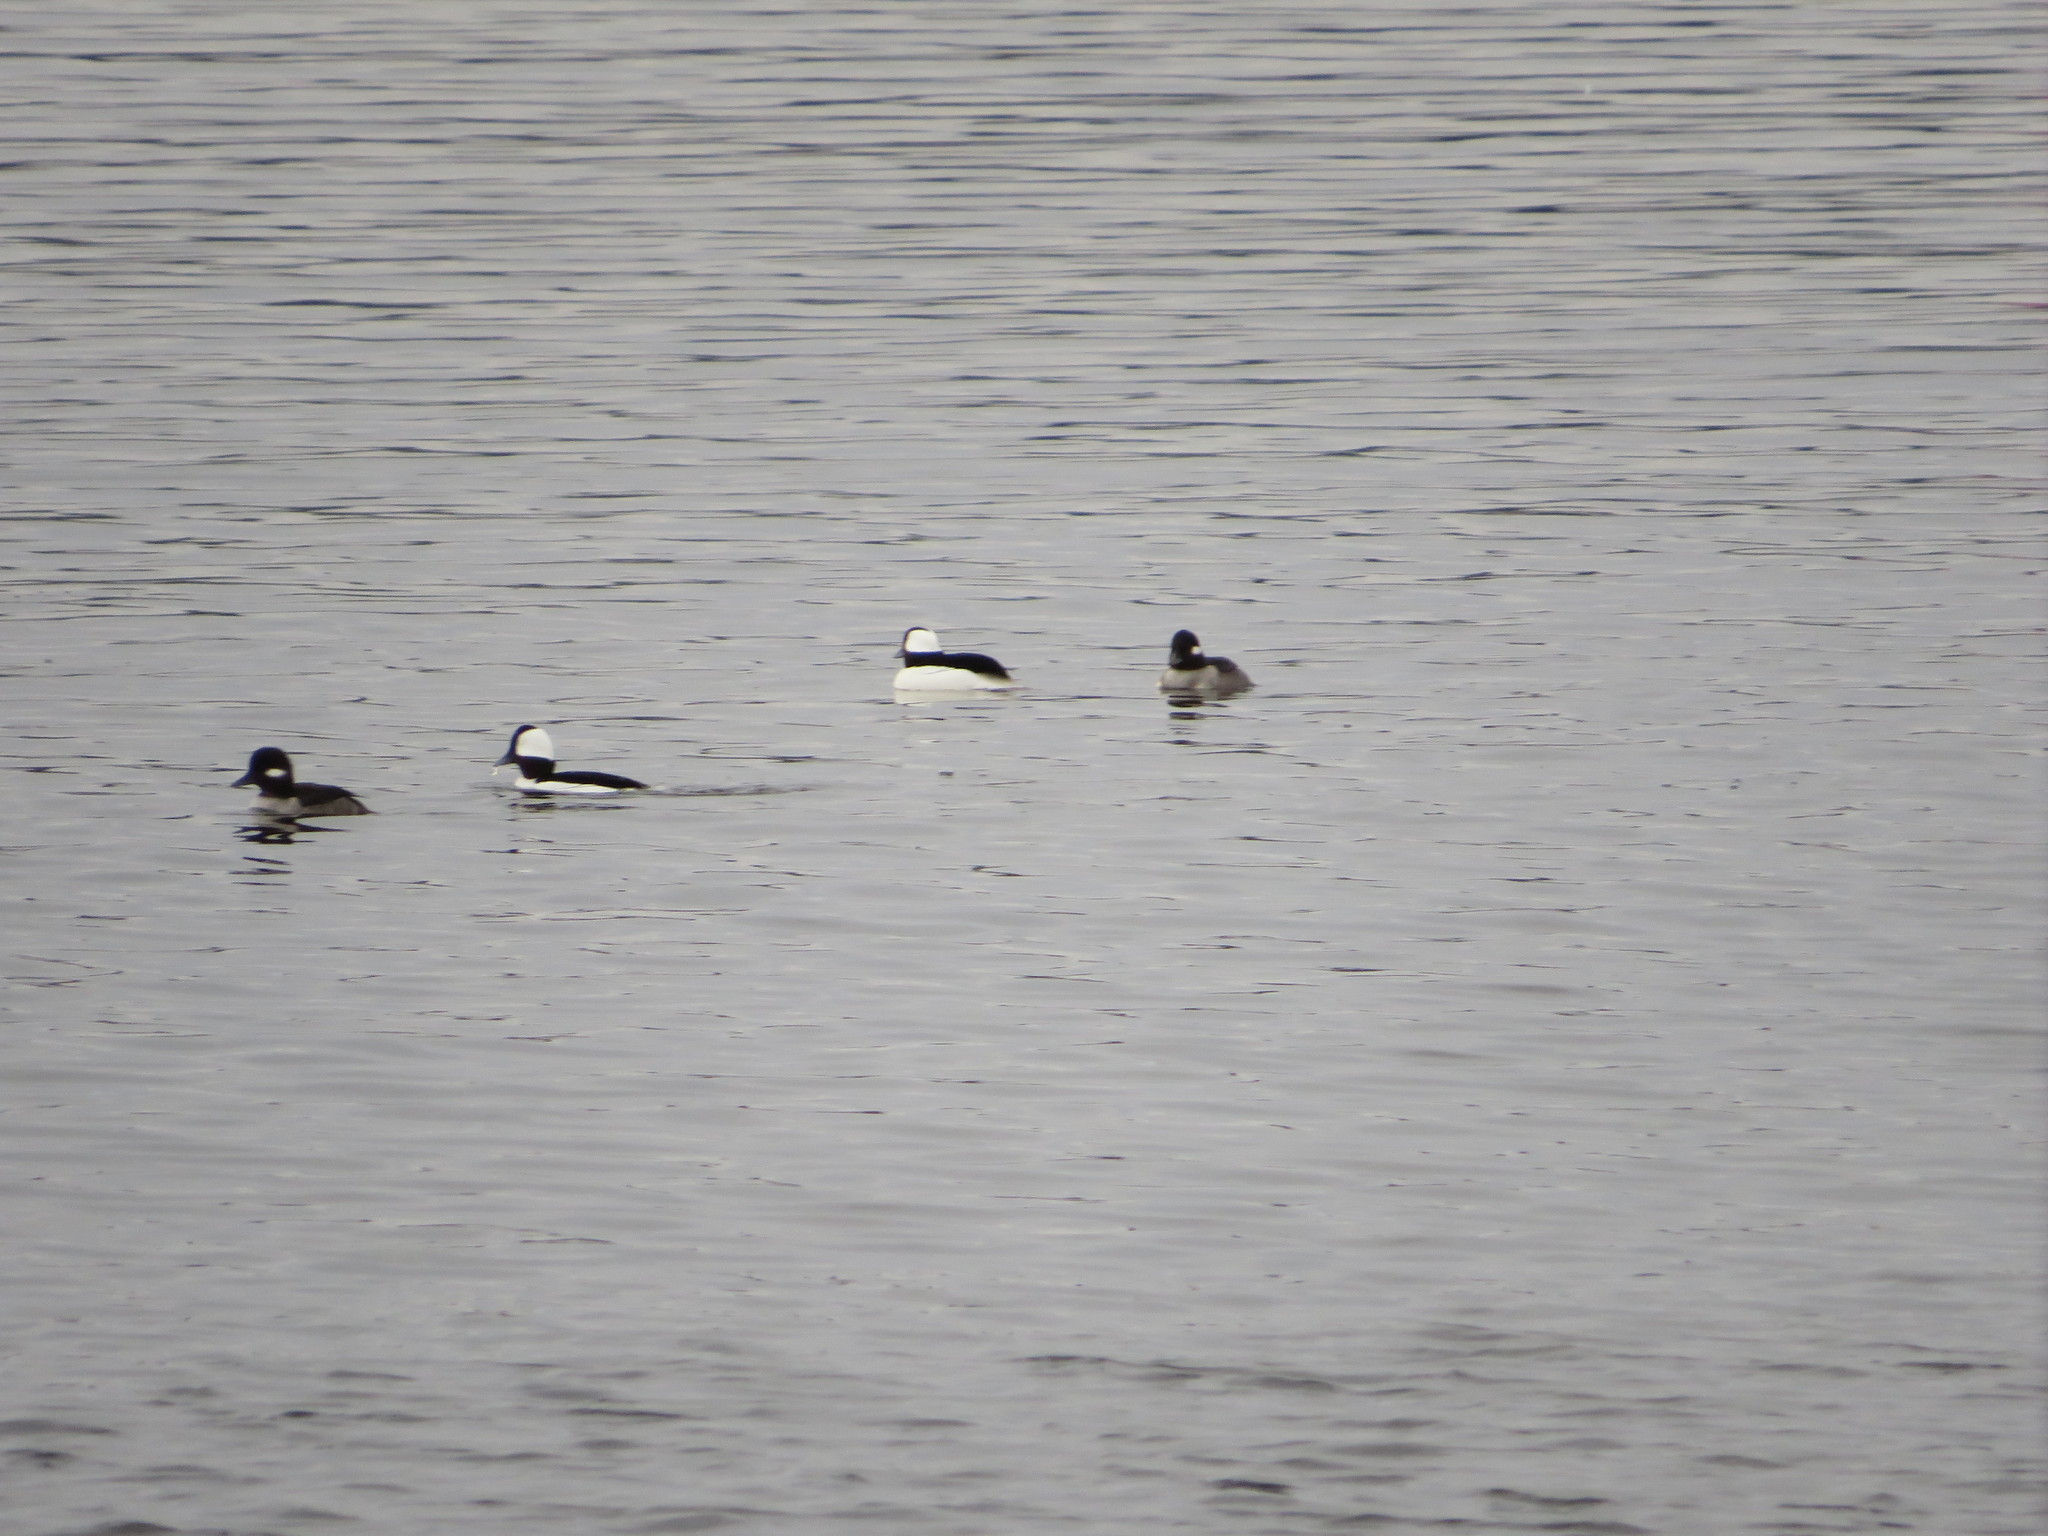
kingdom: Animalia
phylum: Chordata
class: Aves
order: Anseriformes
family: Anatidae
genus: Bucephala
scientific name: Bucephala albeola
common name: Bufflehead
